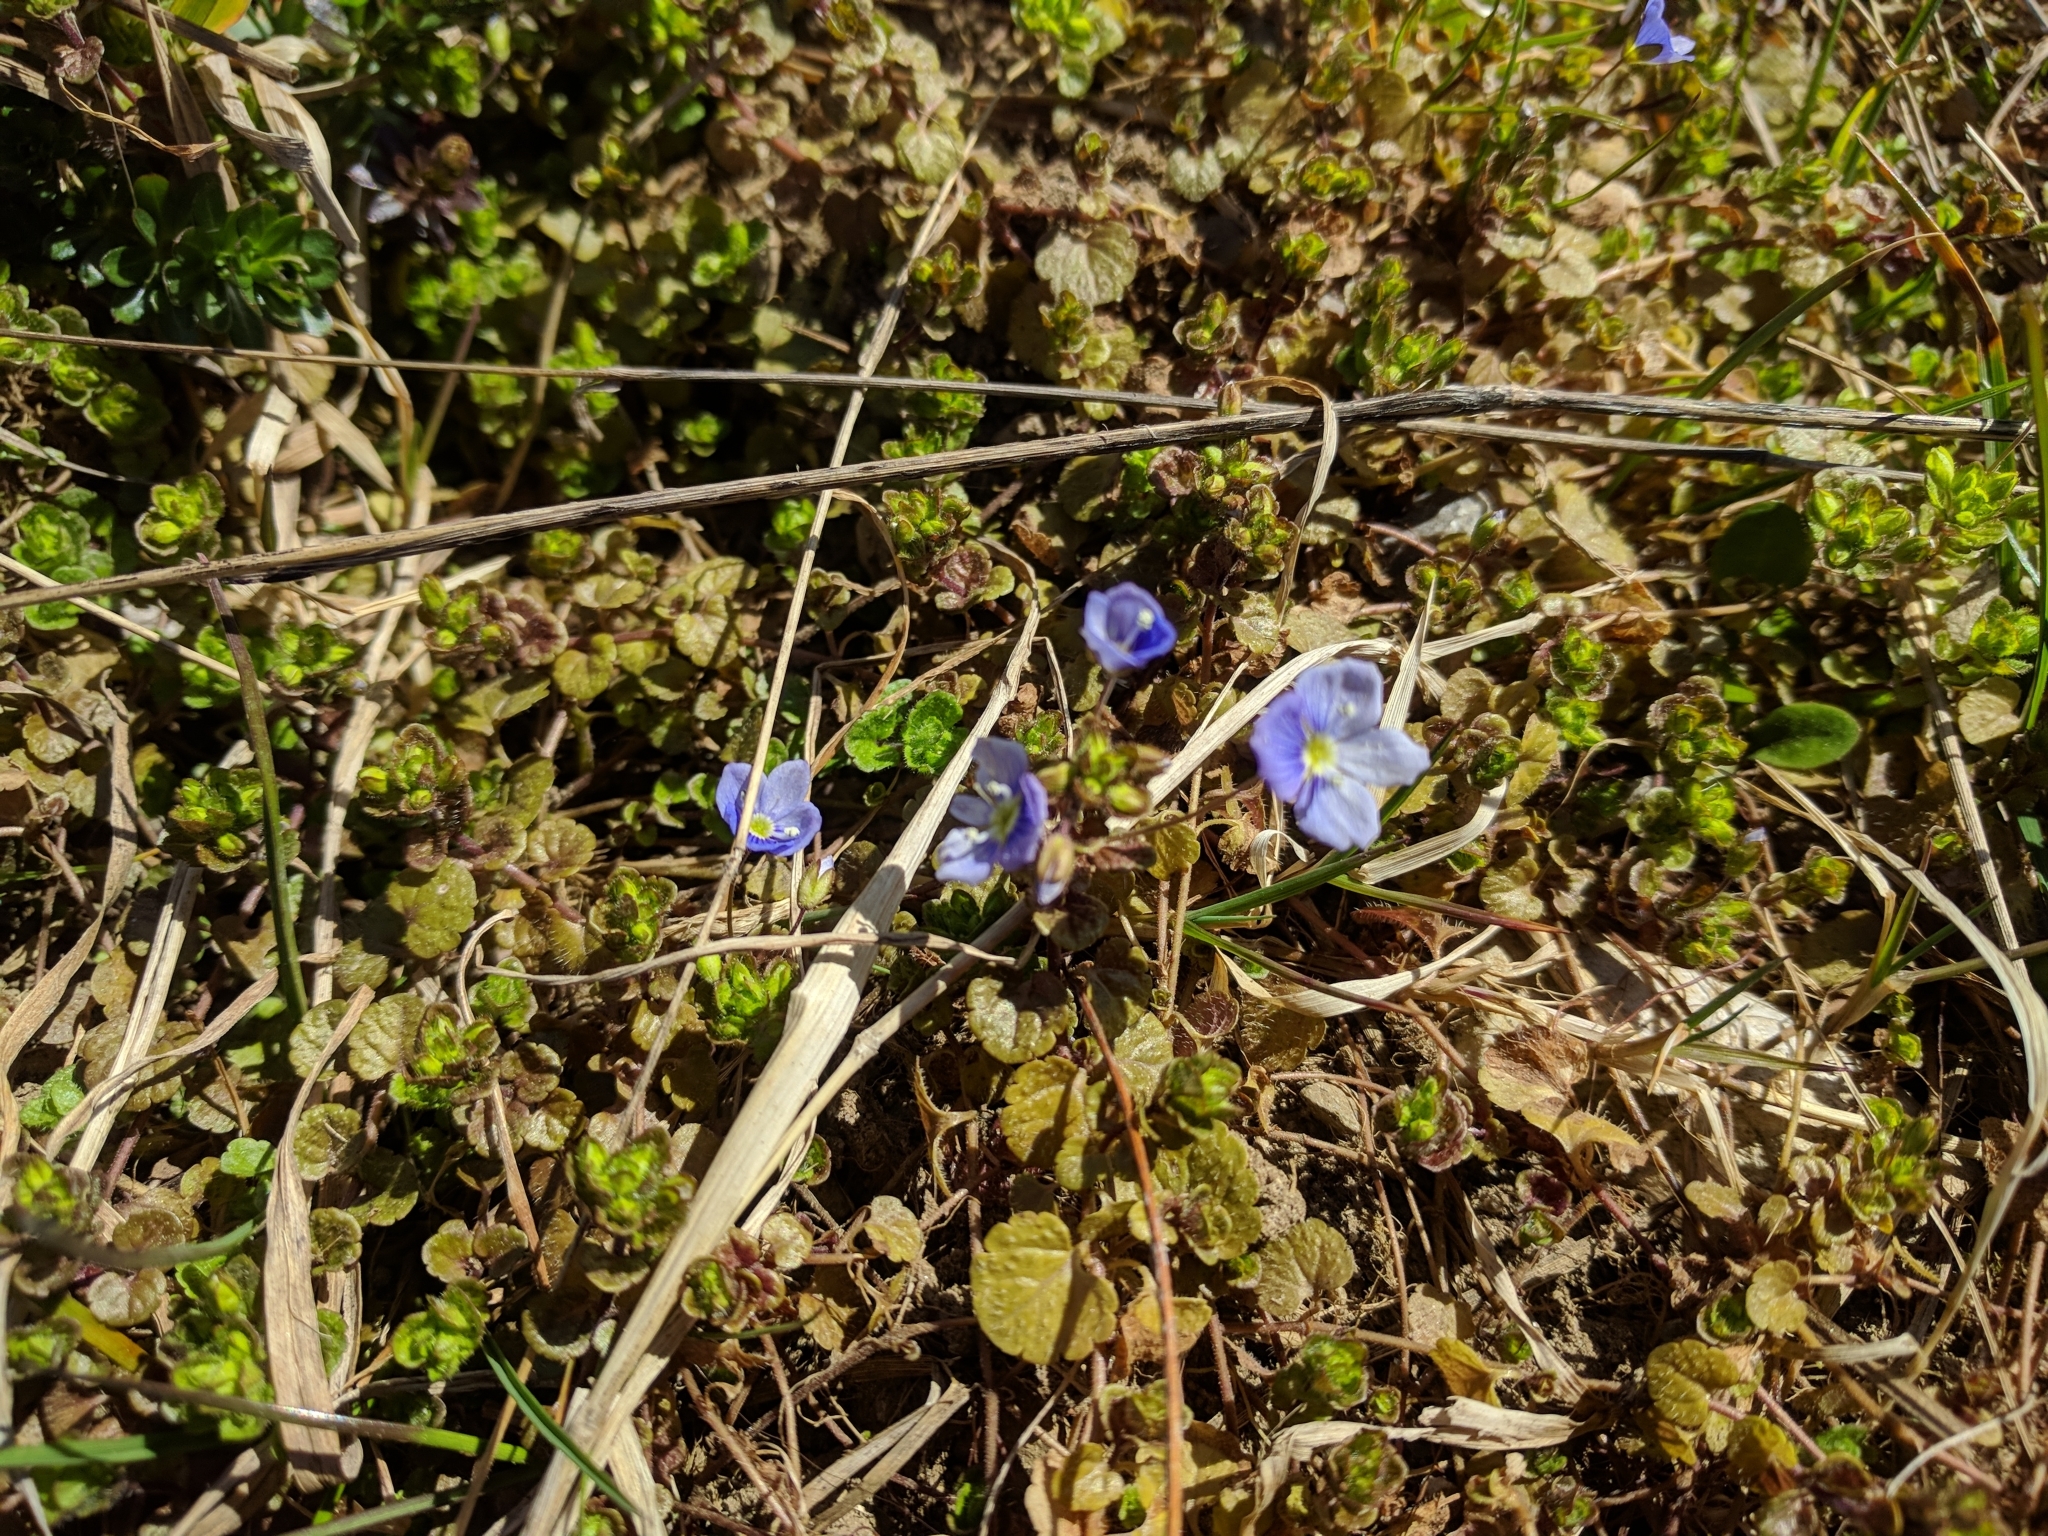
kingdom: Plantae
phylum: Tracheophyta
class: Magnoliopsida
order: Lamiales
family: Plantaginaceae
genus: Veronica
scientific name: Veronica persica
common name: Common field-speedwell
